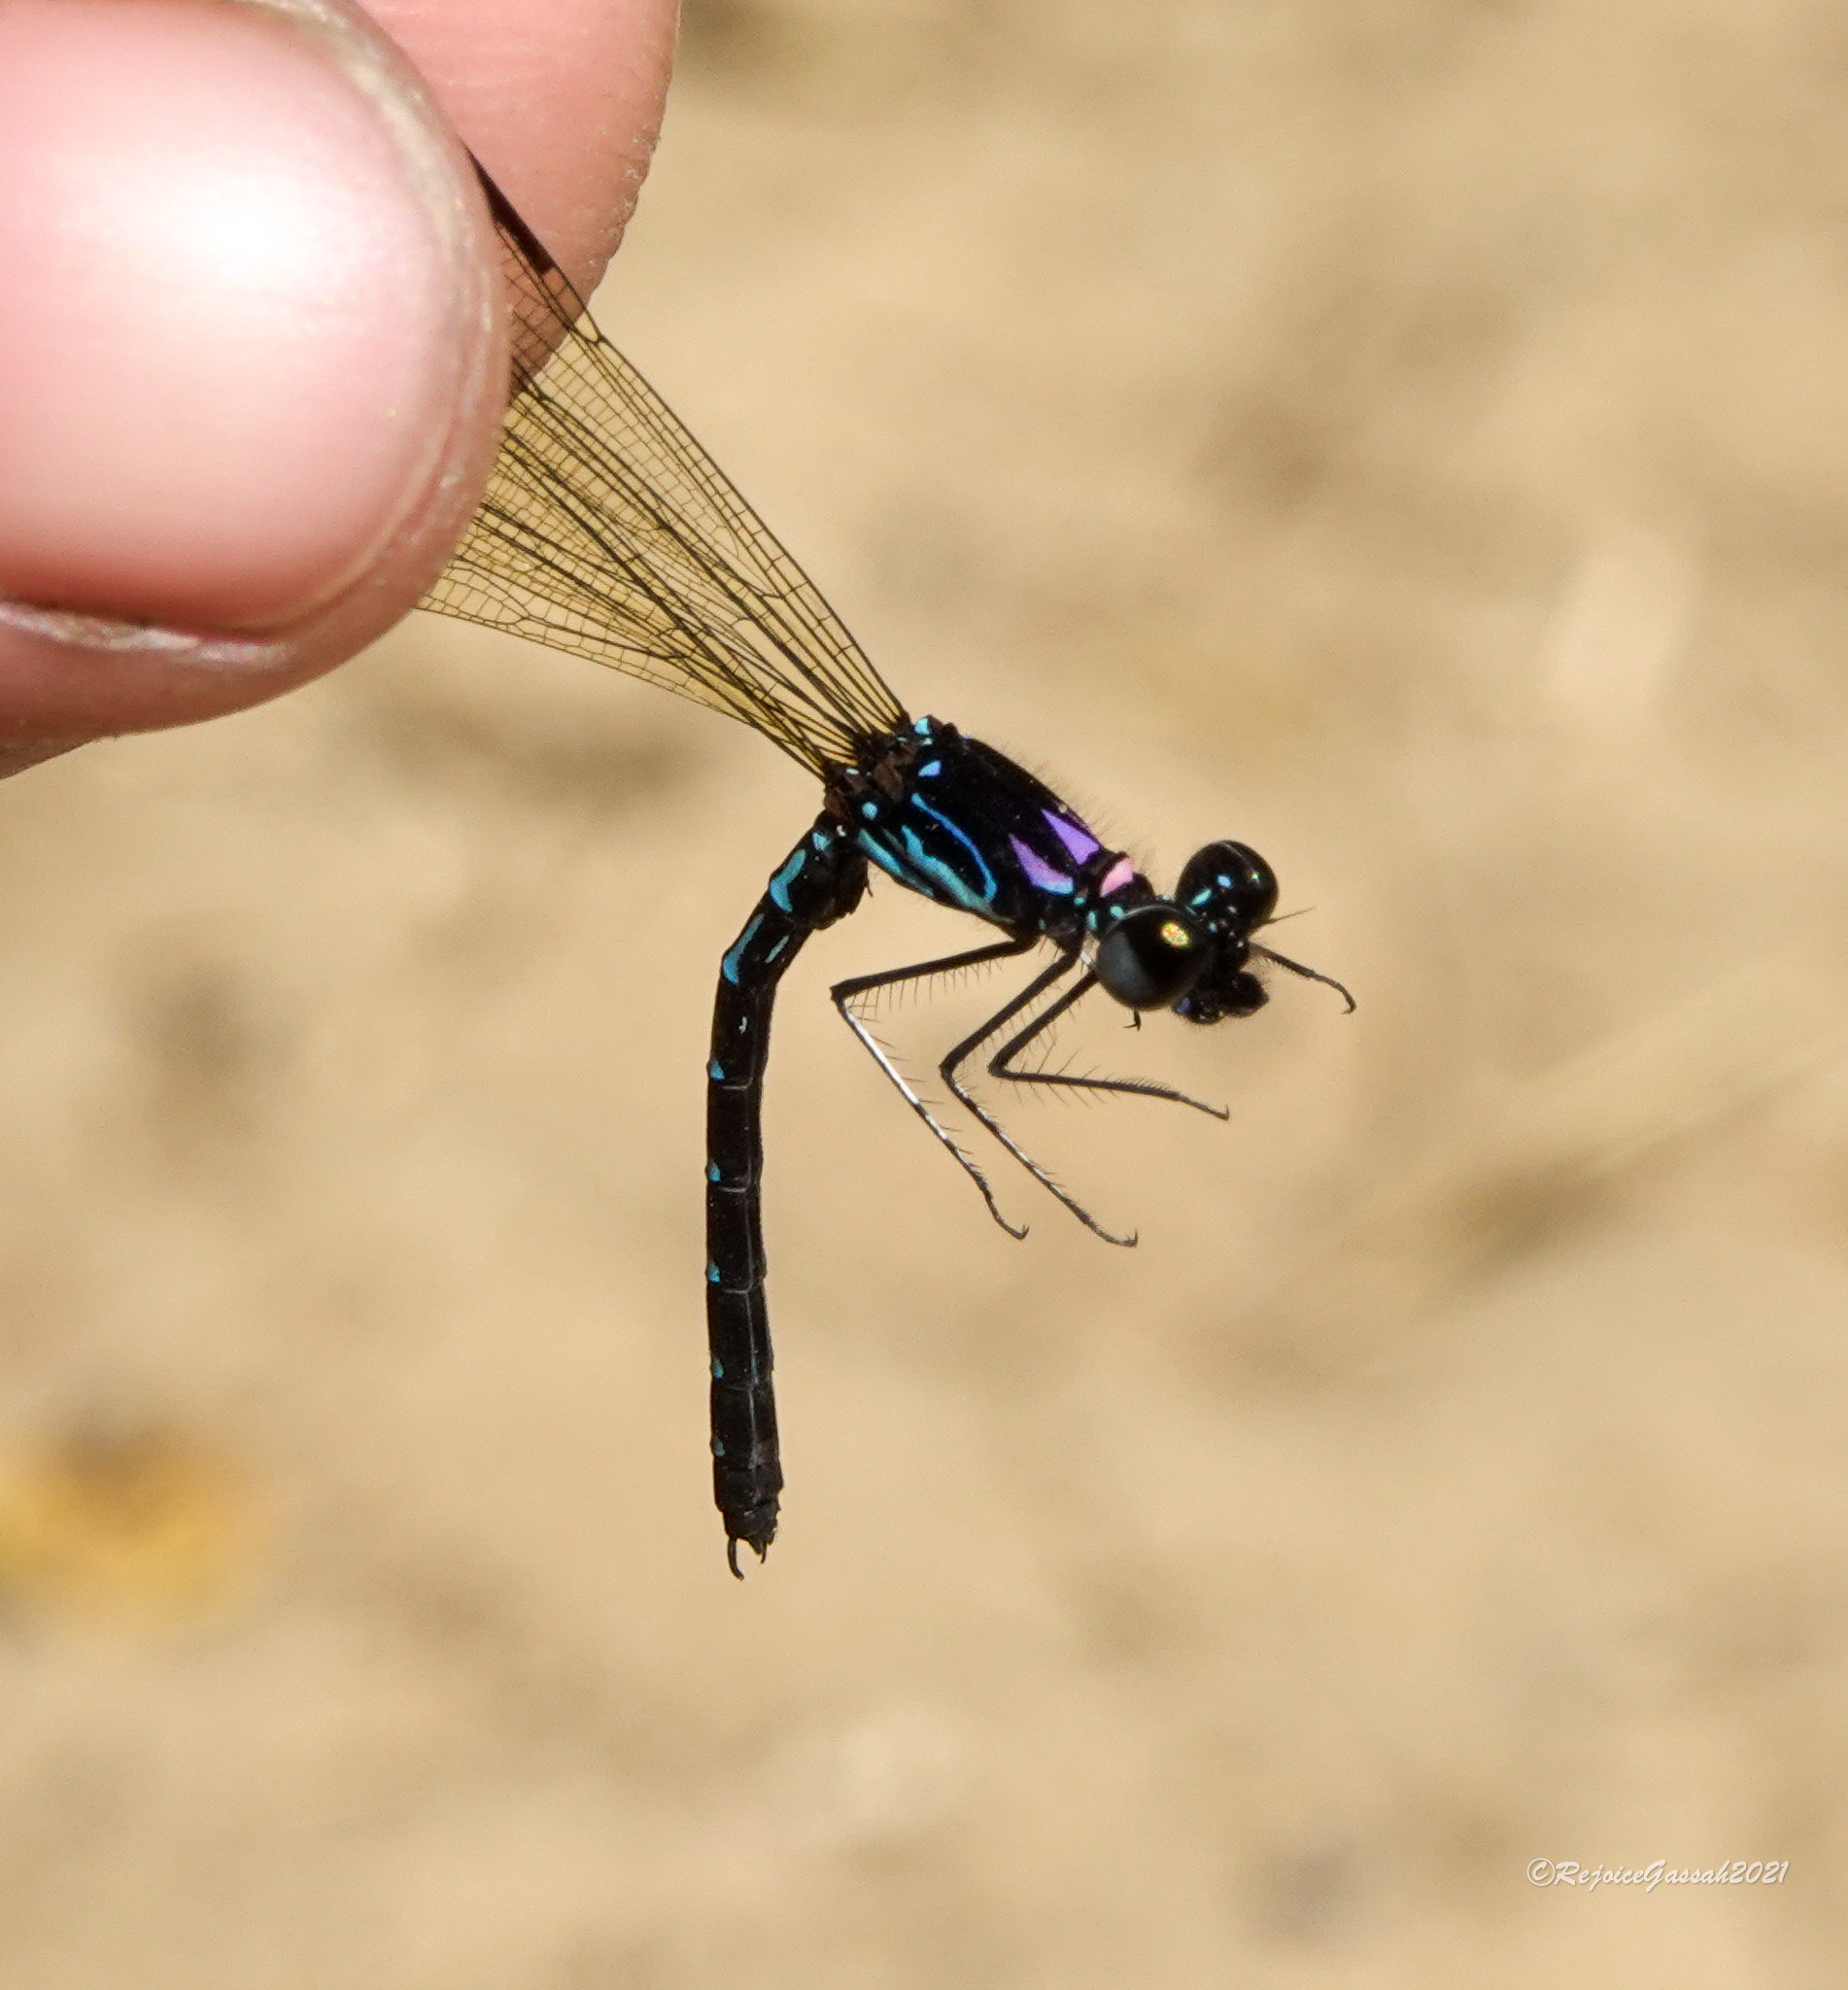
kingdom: Animalia
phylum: Arthropoda
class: Insecta
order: Odonata
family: Chlorocyphidae
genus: Heliocypha
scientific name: Heliocypha perforata
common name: Common blue jewel
